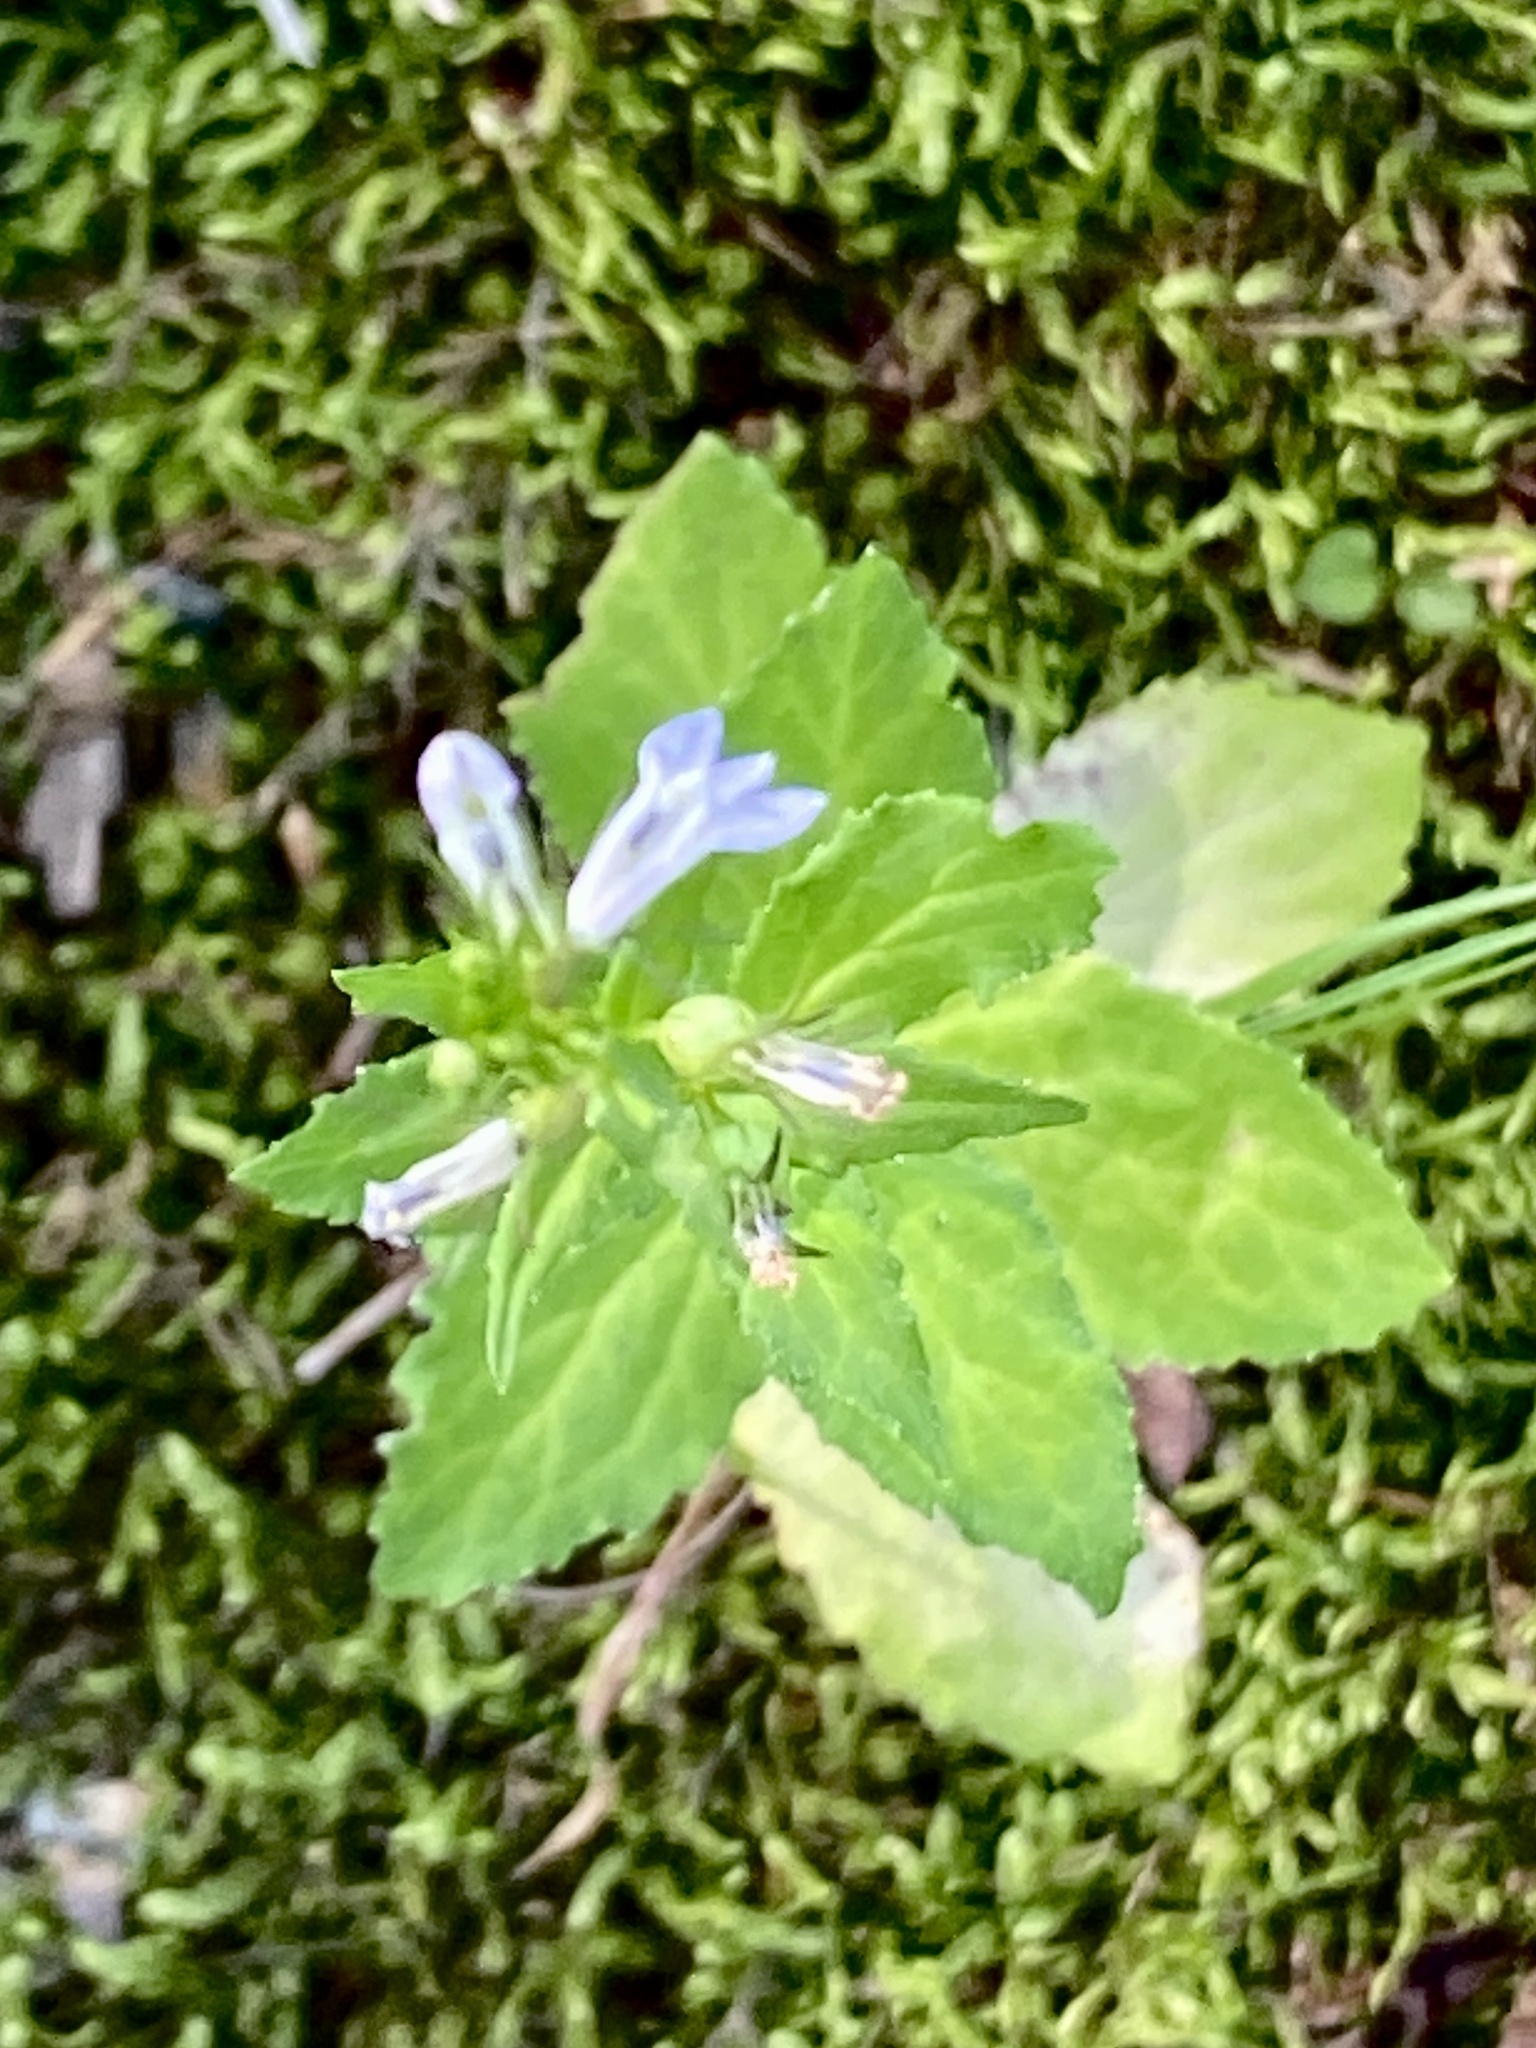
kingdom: Plantae
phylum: Tracheophyta
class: Magnoliopsida
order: Asterales
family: Campanulaceae
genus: Lobelia
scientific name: Lobelia inflata
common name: Indian tobacco
